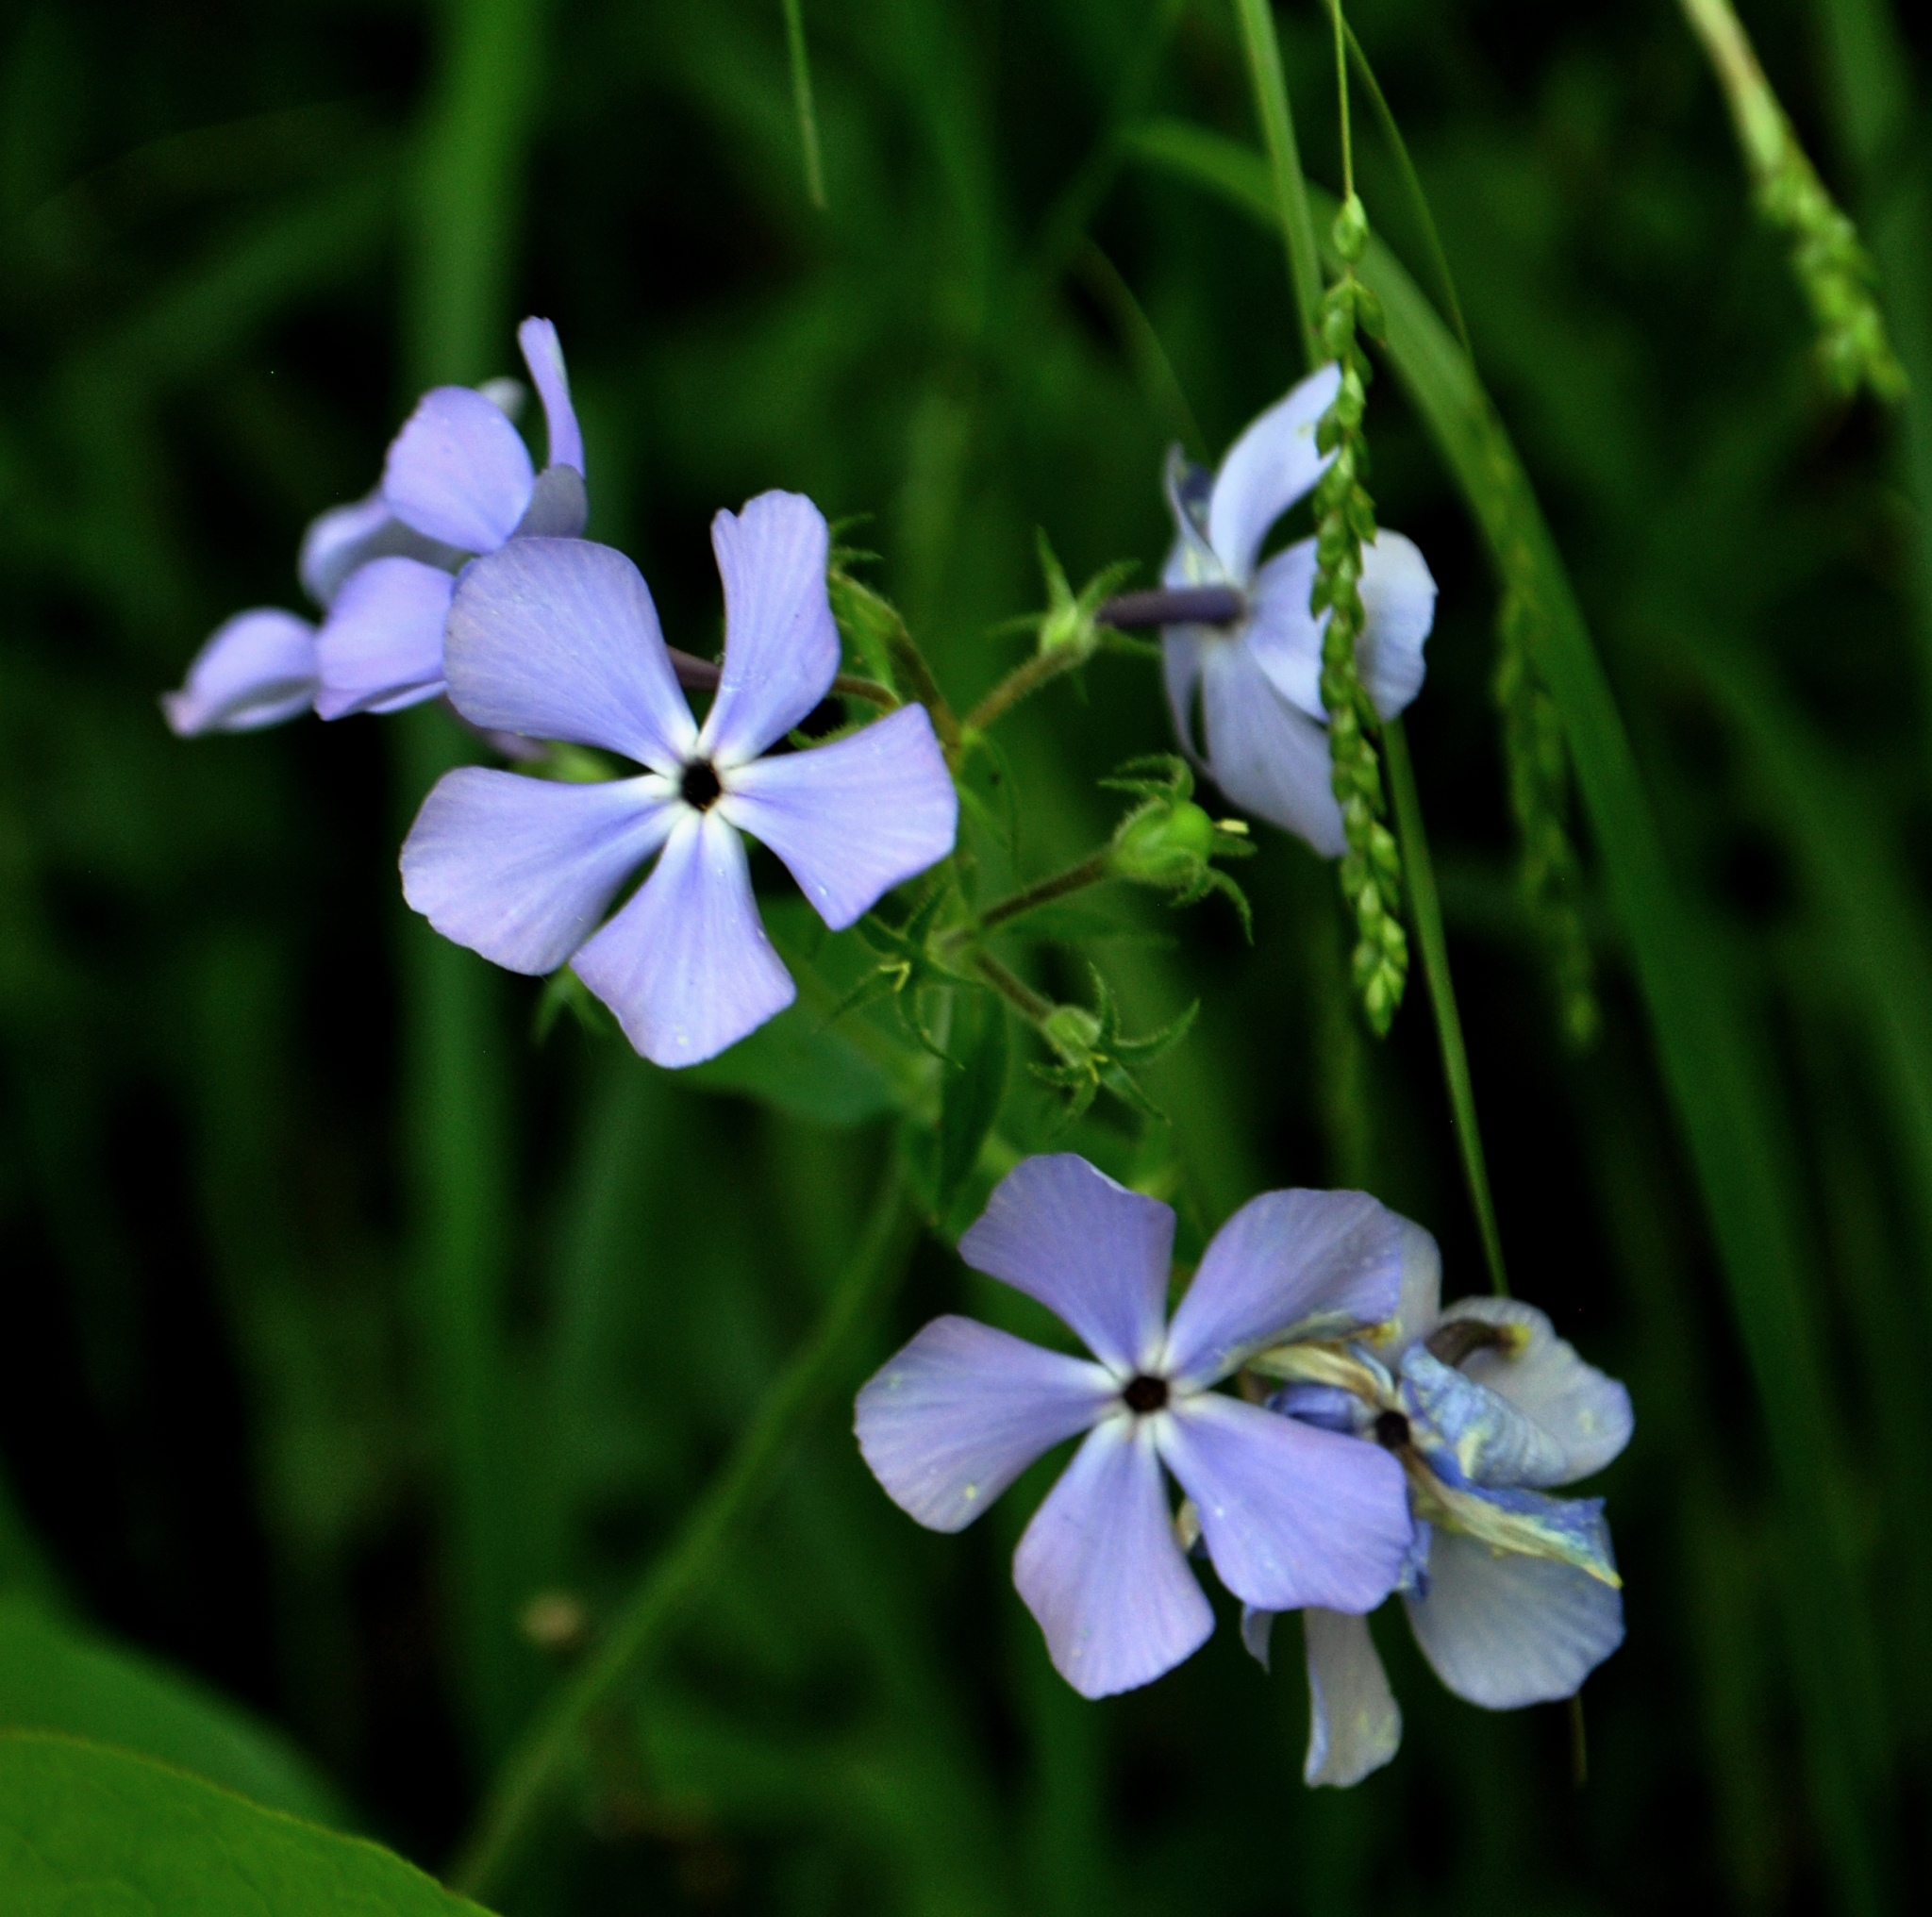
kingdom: Plantae
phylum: Tracheophyta
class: Magnoliopsida
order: Ericales
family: Polemoniaceae
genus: Phlox
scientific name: Phlox divaricata
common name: Blue phlox
